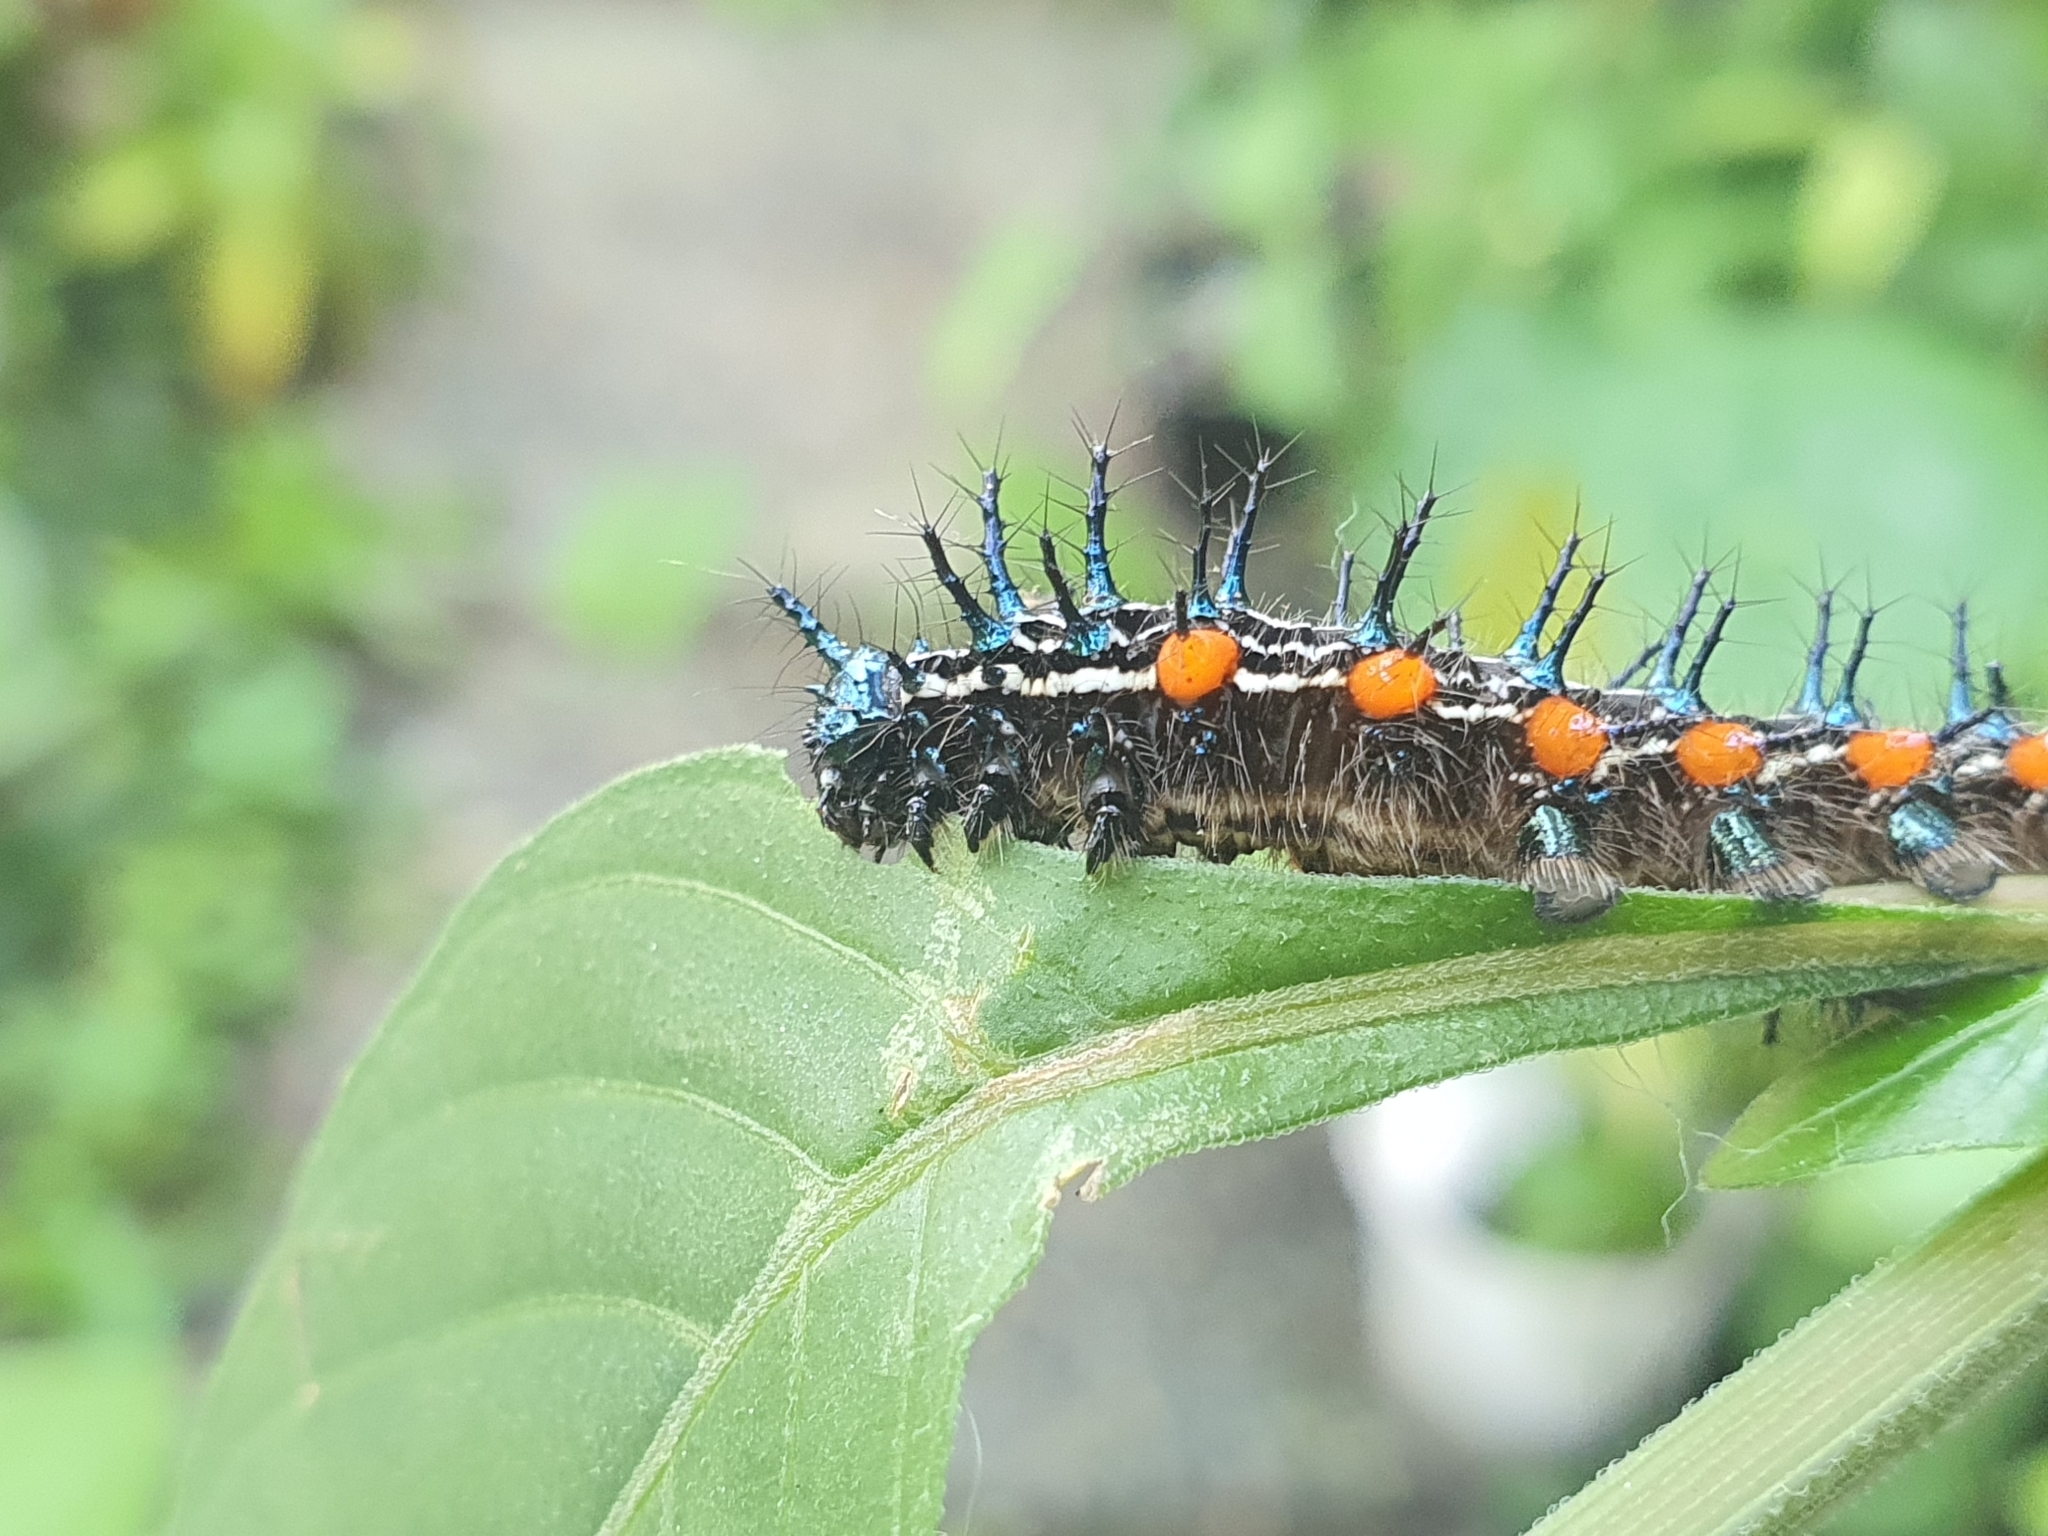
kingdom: Animalia
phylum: Arthropoda
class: Insecta
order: Lepidoptera
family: Nymphalidae
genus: Doleschallia
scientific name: Doleschallia bisaltide
